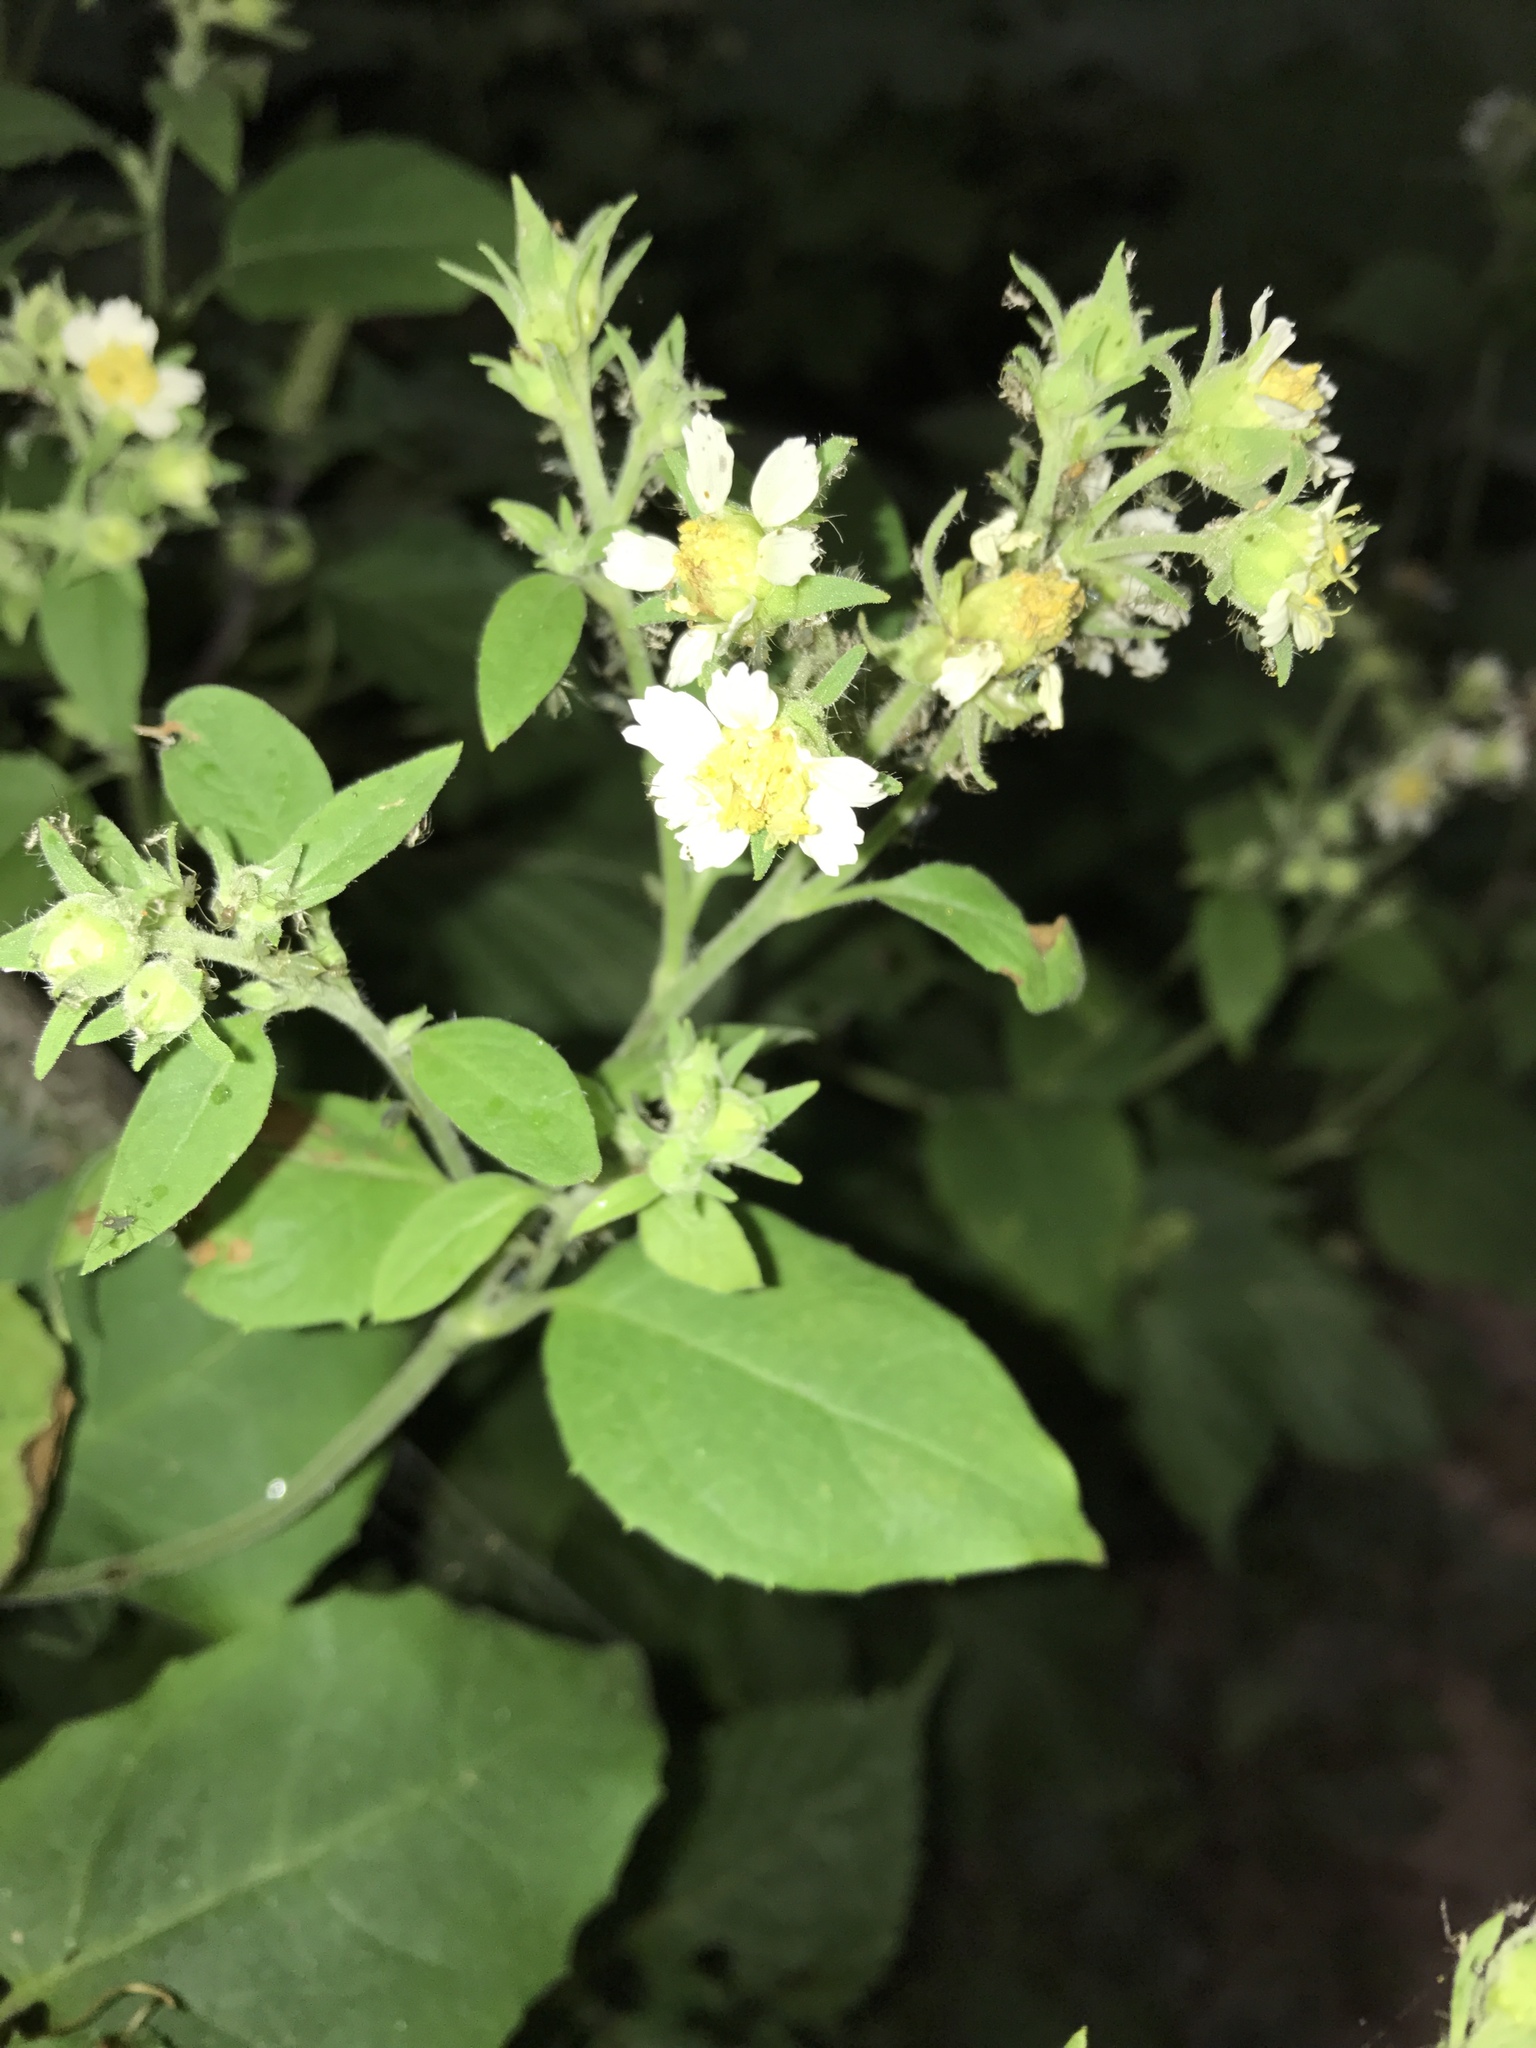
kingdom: Plantae
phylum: Tracheophyta
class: Magnoliopsida
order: Asterales
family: Asteraceae
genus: Polymnia
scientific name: Polymnia canadensis
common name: Pale-flowered leafcup
